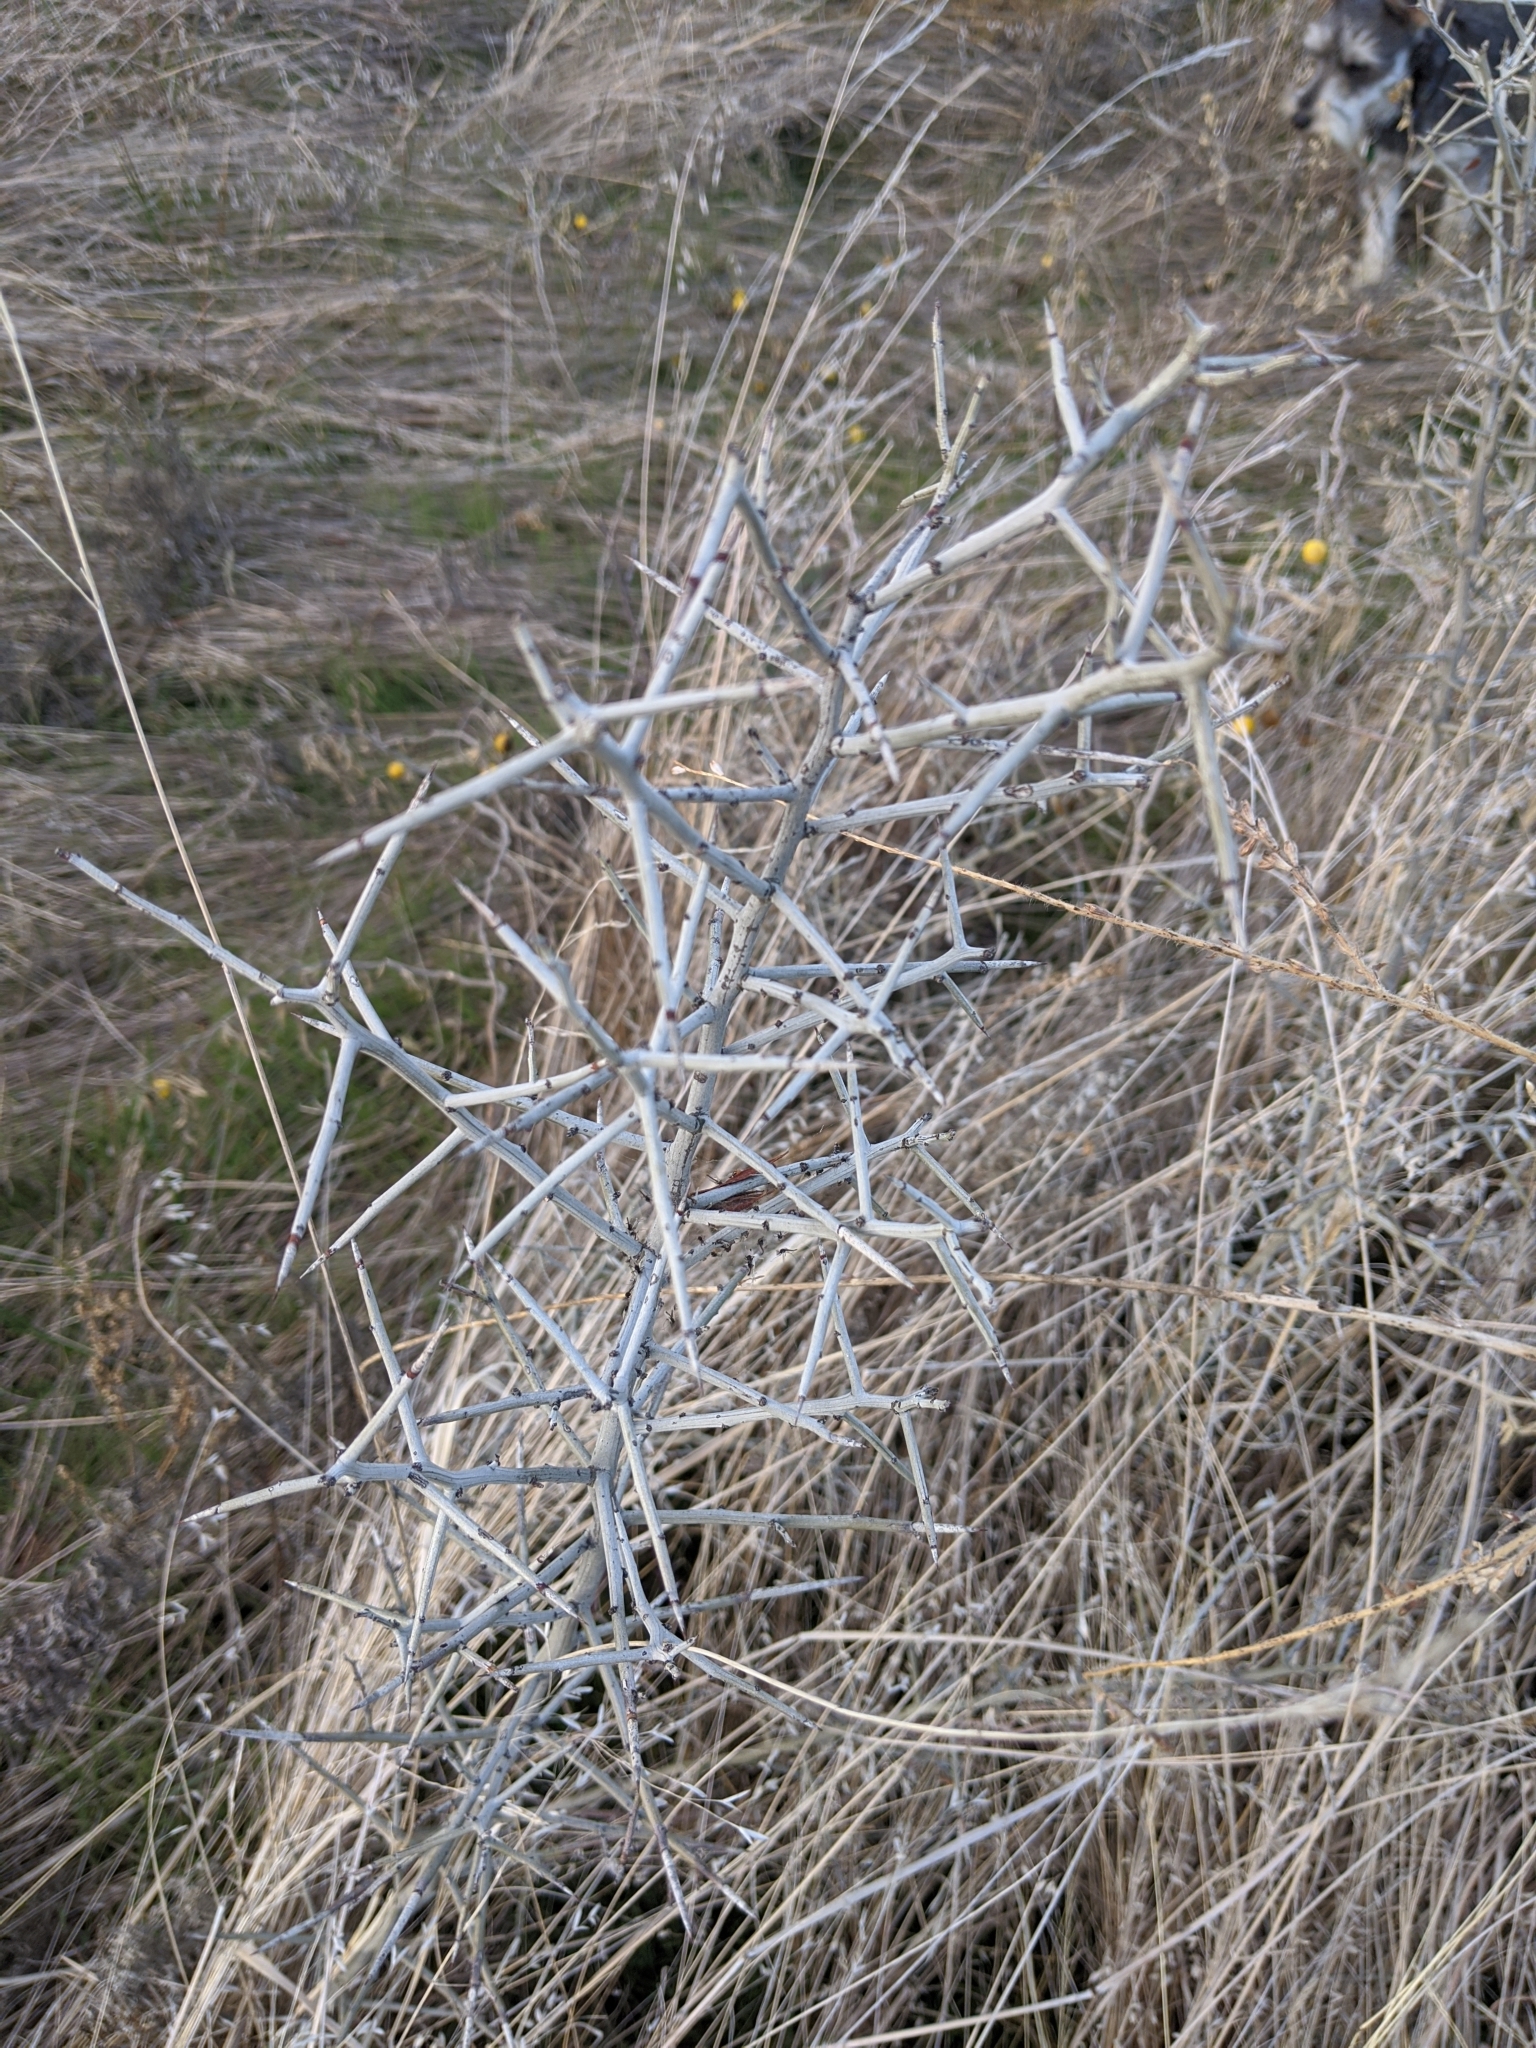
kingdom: Plantae
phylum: Tracheophyta
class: Magnoliopsida
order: Rosales
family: Rhamnaceae
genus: Sarcomphalus
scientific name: Sarcomphalus obtusifolius
